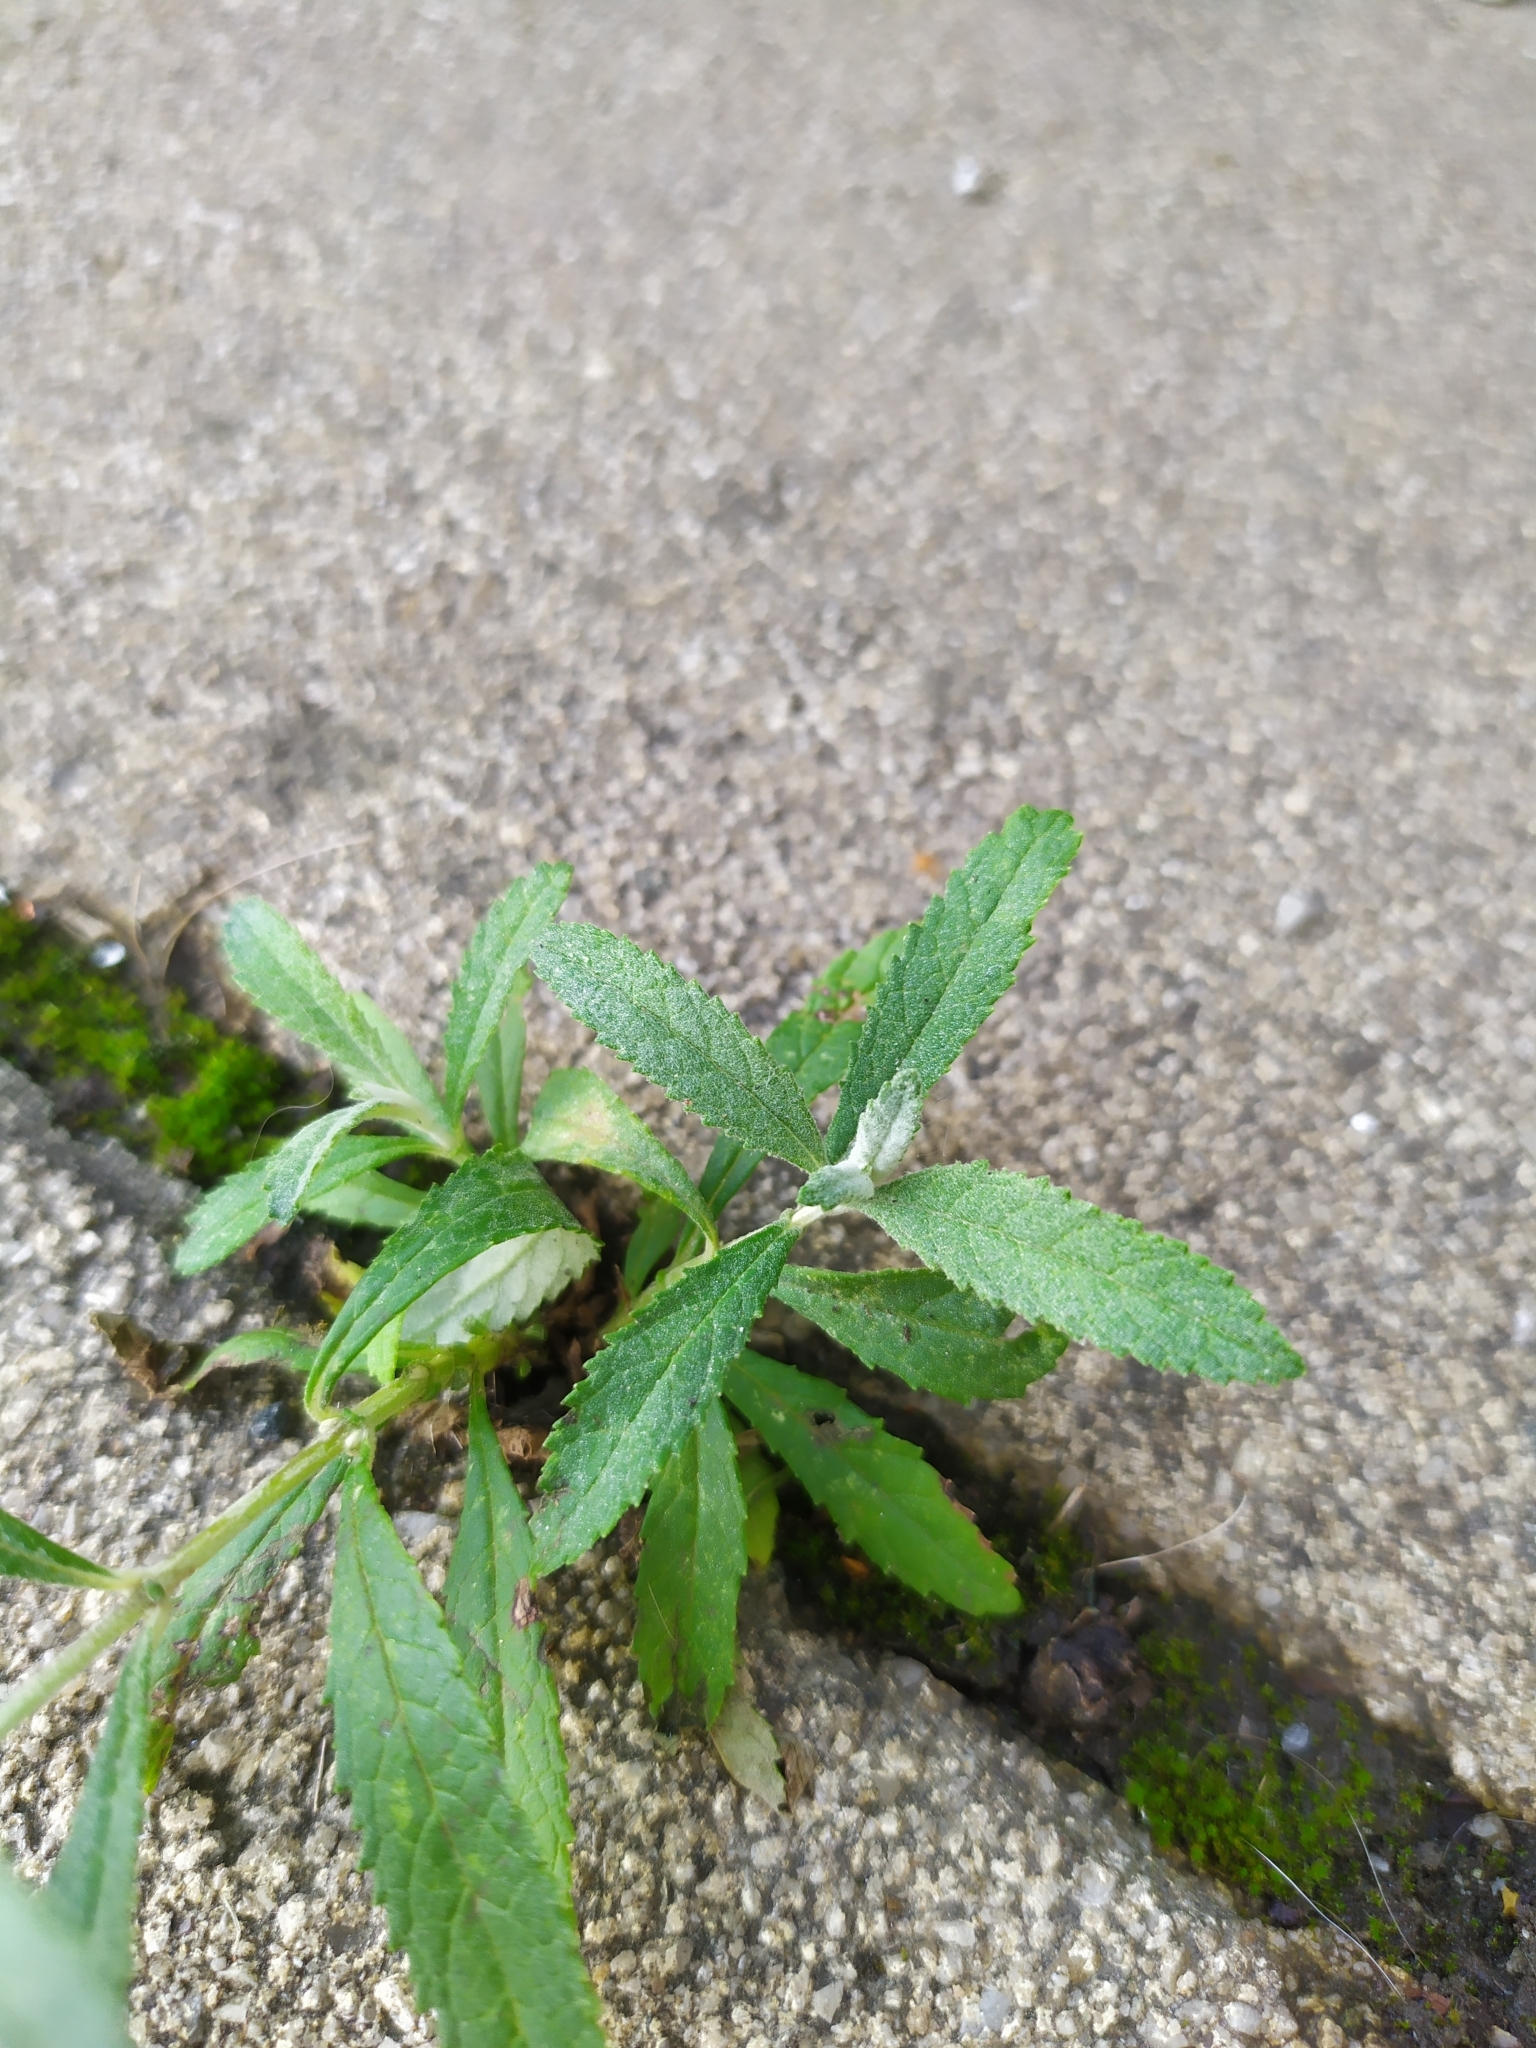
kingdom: Plantae
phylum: Tracheophyta
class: Magnoliopsida
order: Lamiales
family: Scrophulariaceae
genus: Buddleja
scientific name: Buddleja davidii
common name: Butterfly-bush
